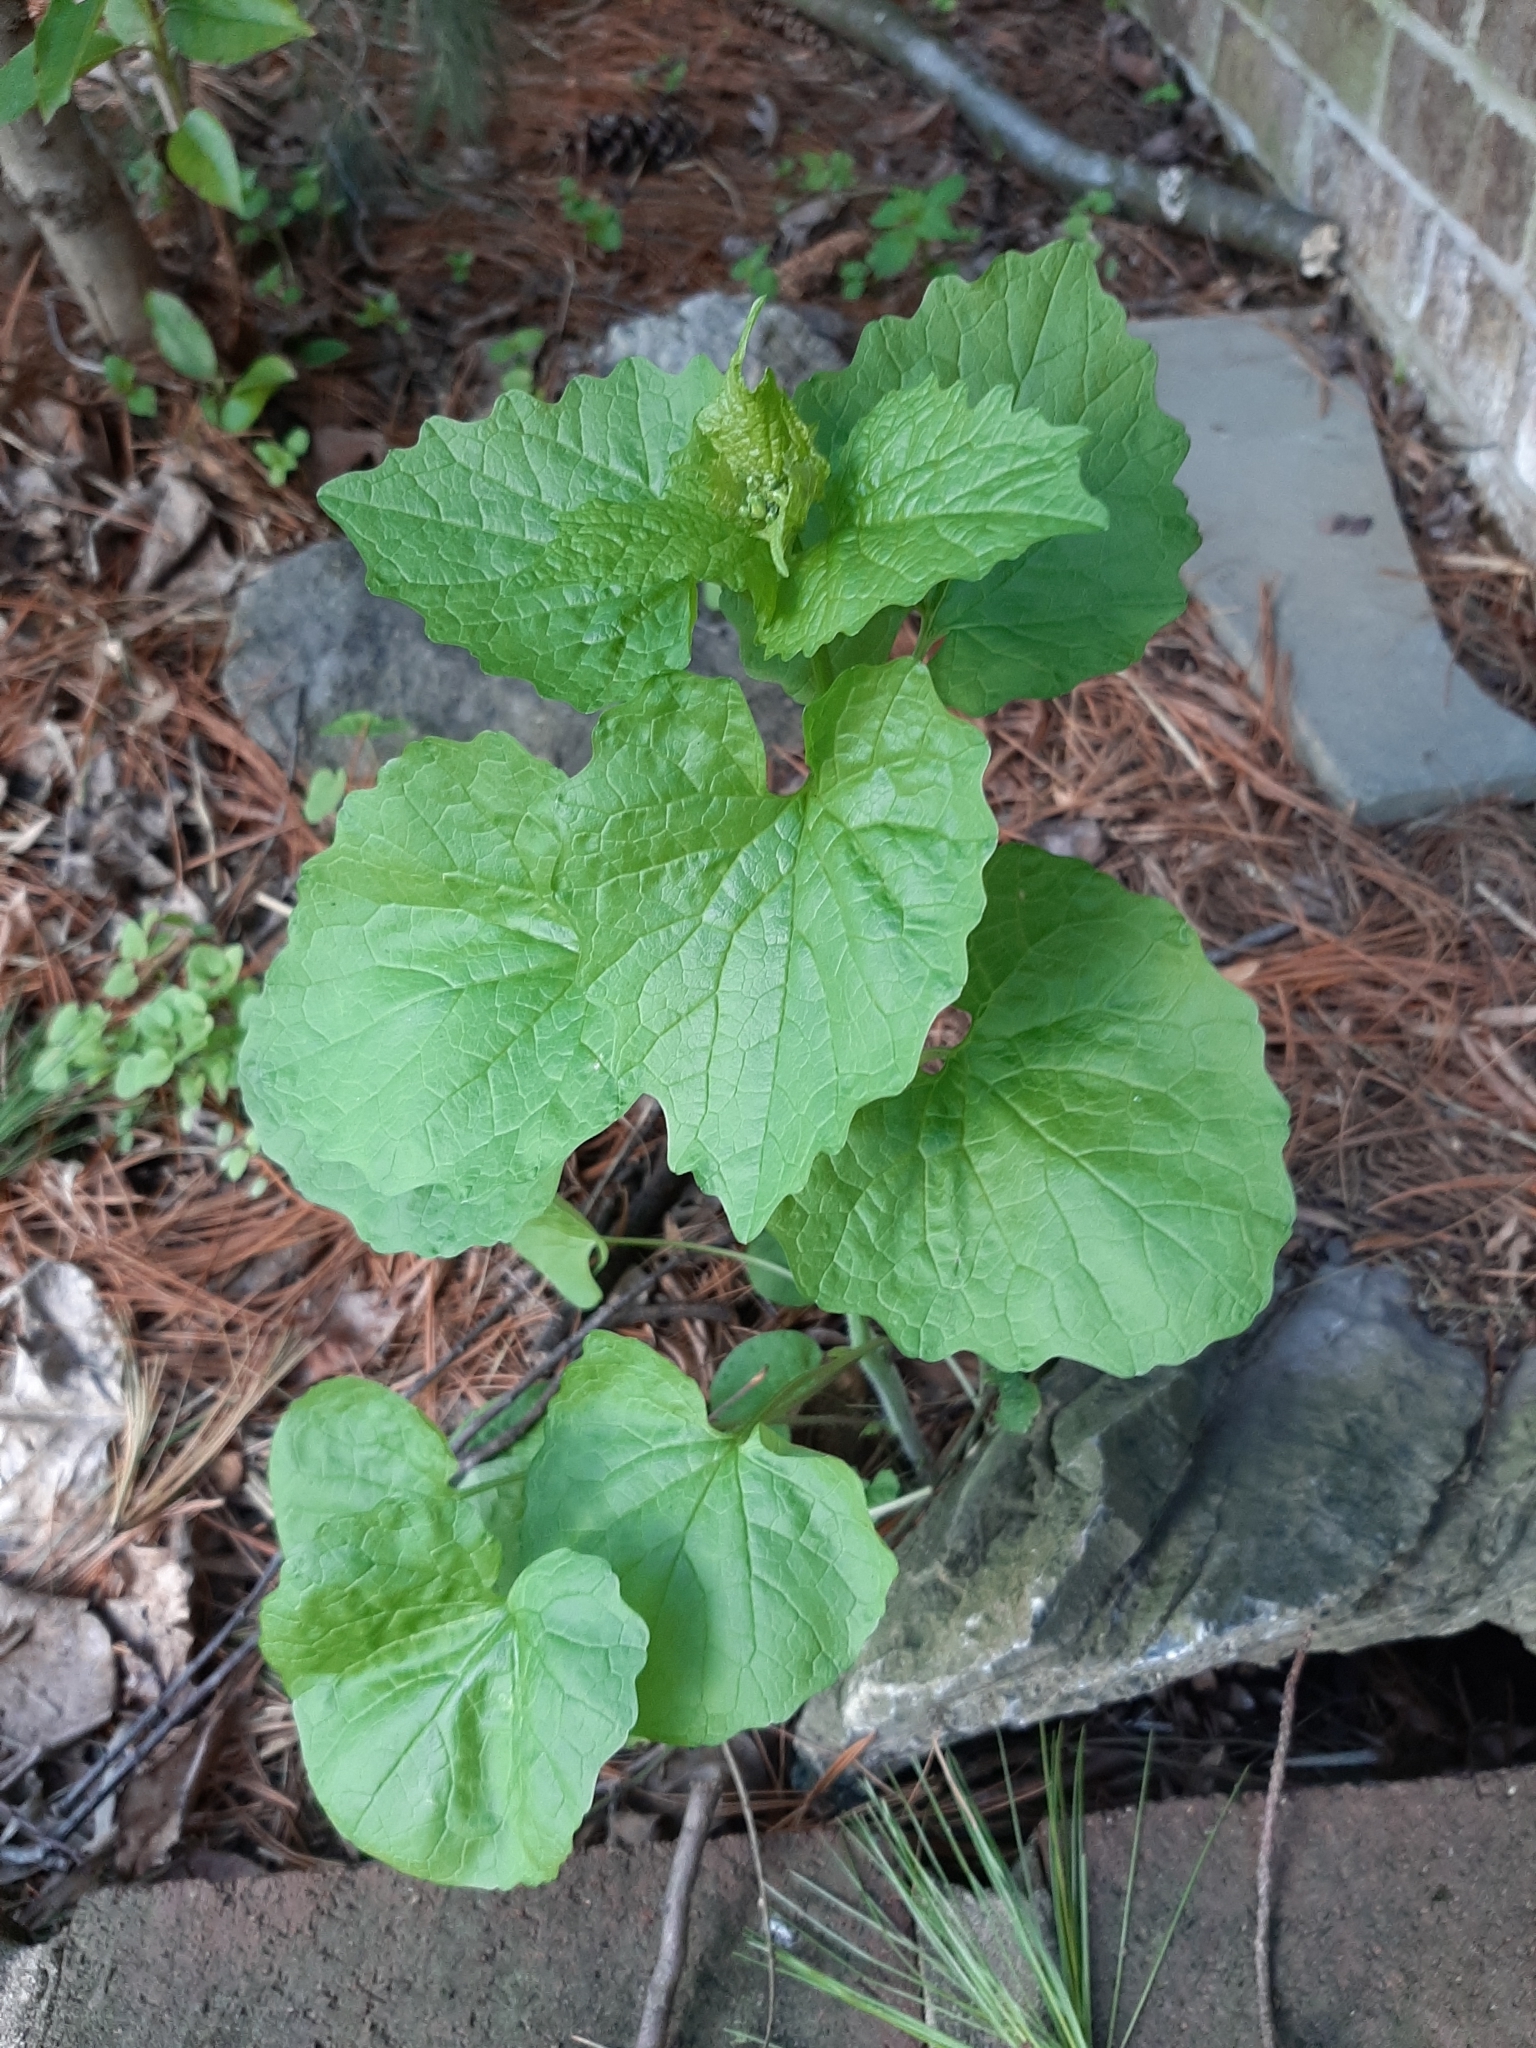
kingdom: Plantae
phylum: Tracheophyta
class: Magnoliopsida
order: Brassicales
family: Brassicaceae
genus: Alliaria
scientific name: Alliaria petiolata
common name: Garlic mustard
